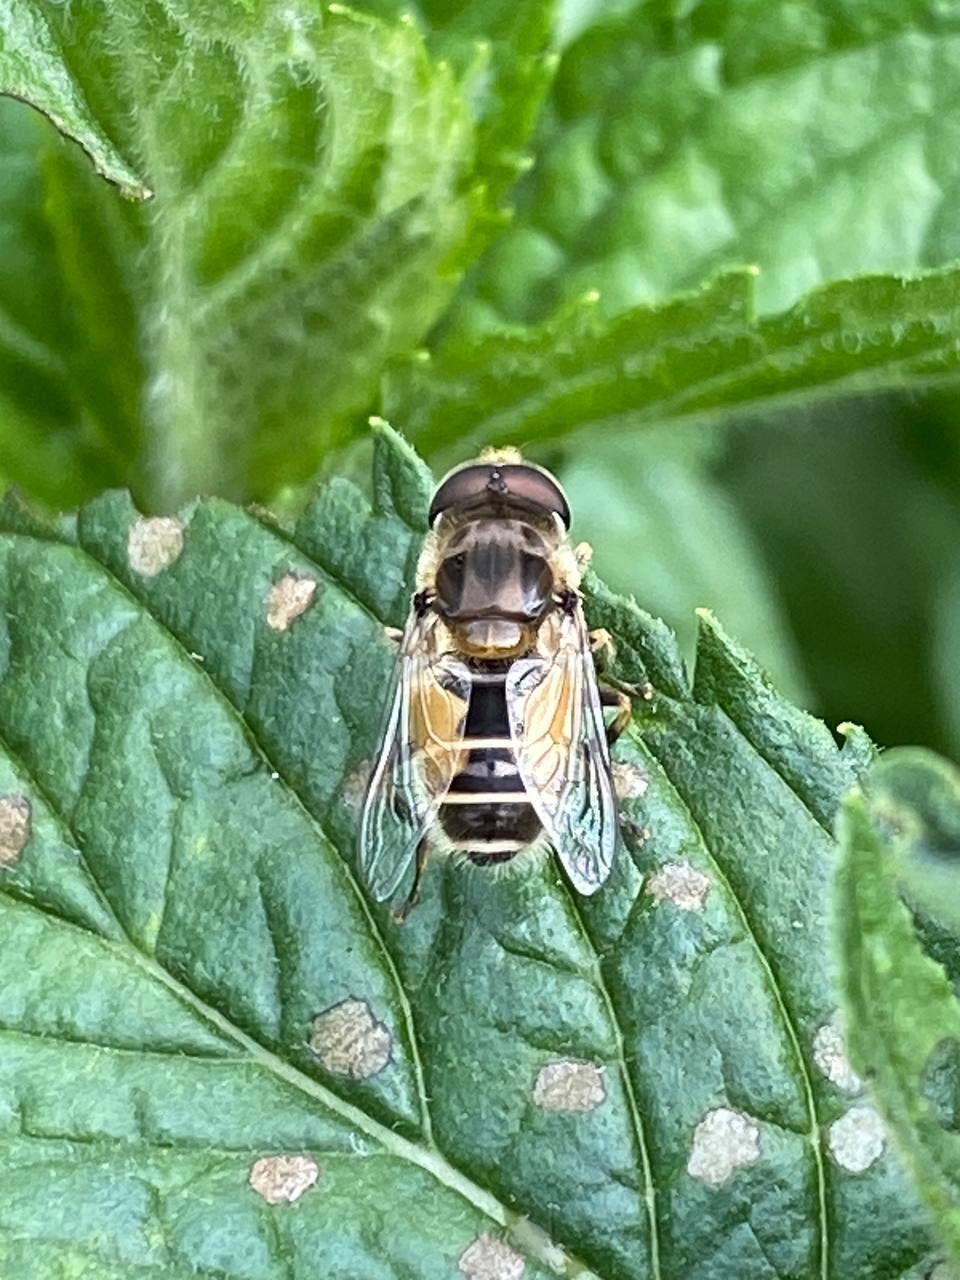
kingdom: Animalia
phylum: Arthropoda
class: Insecta
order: Diptera
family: Syrphidae
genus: Eoseristalis
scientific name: Eoseristalis
